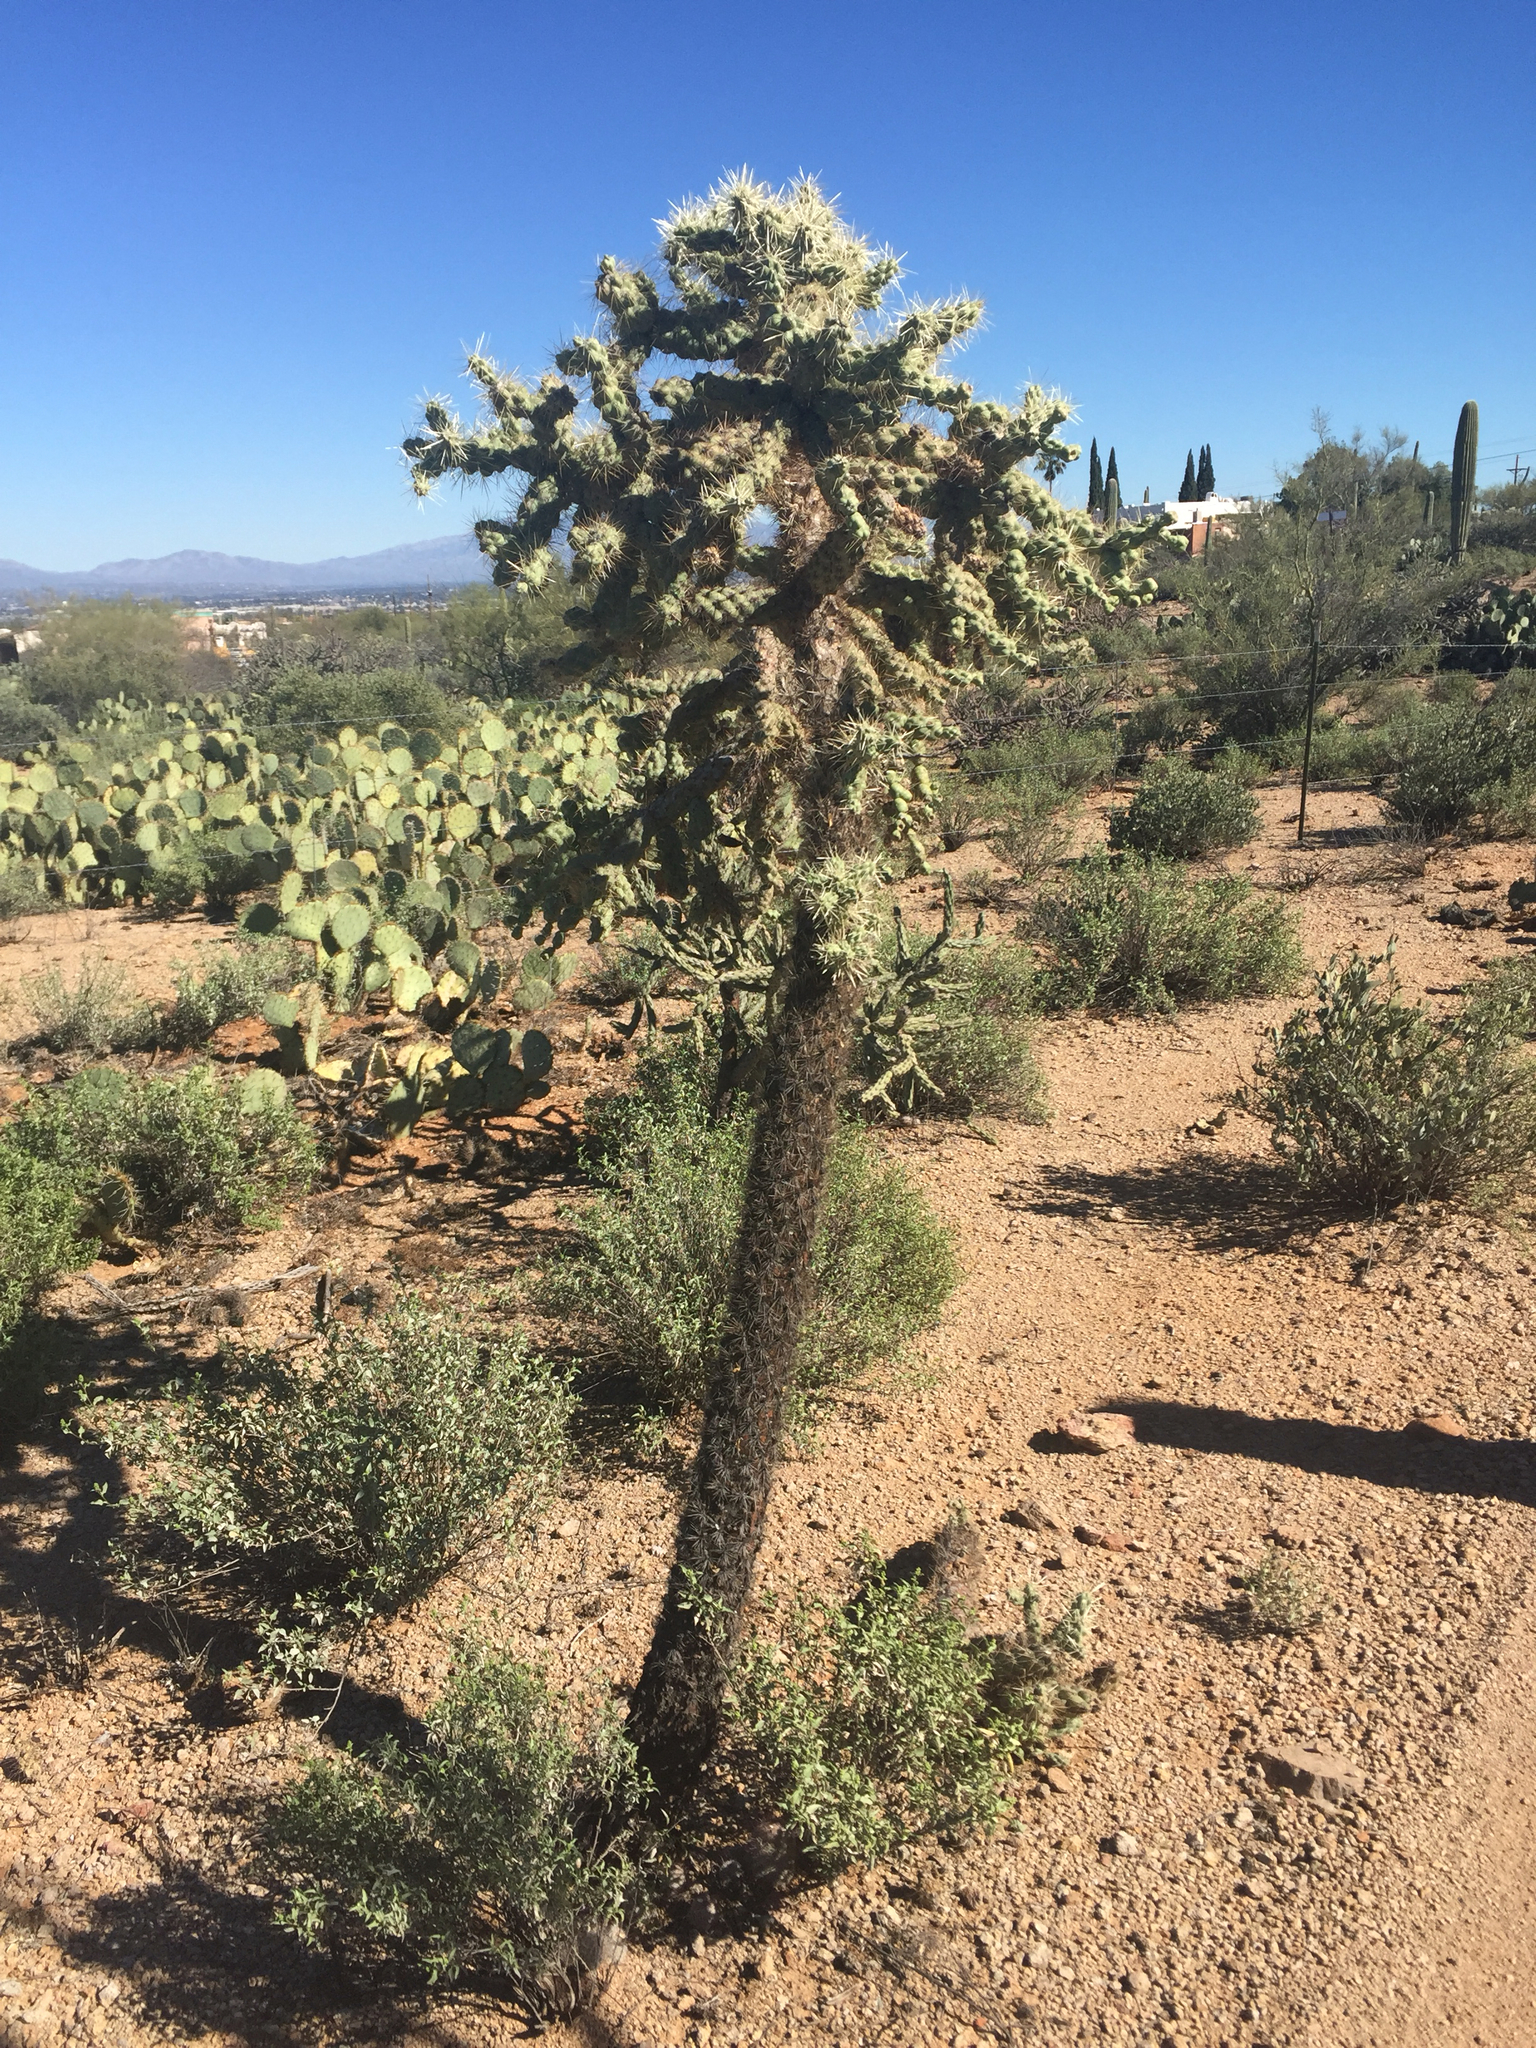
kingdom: Plantae
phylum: Tracheophyta
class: Magnoliopsida
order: Caryophyllales
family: Cactaceae
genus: Cylindropuntia
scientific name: Cylindropuntia fulgida
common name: Jumping cholla
